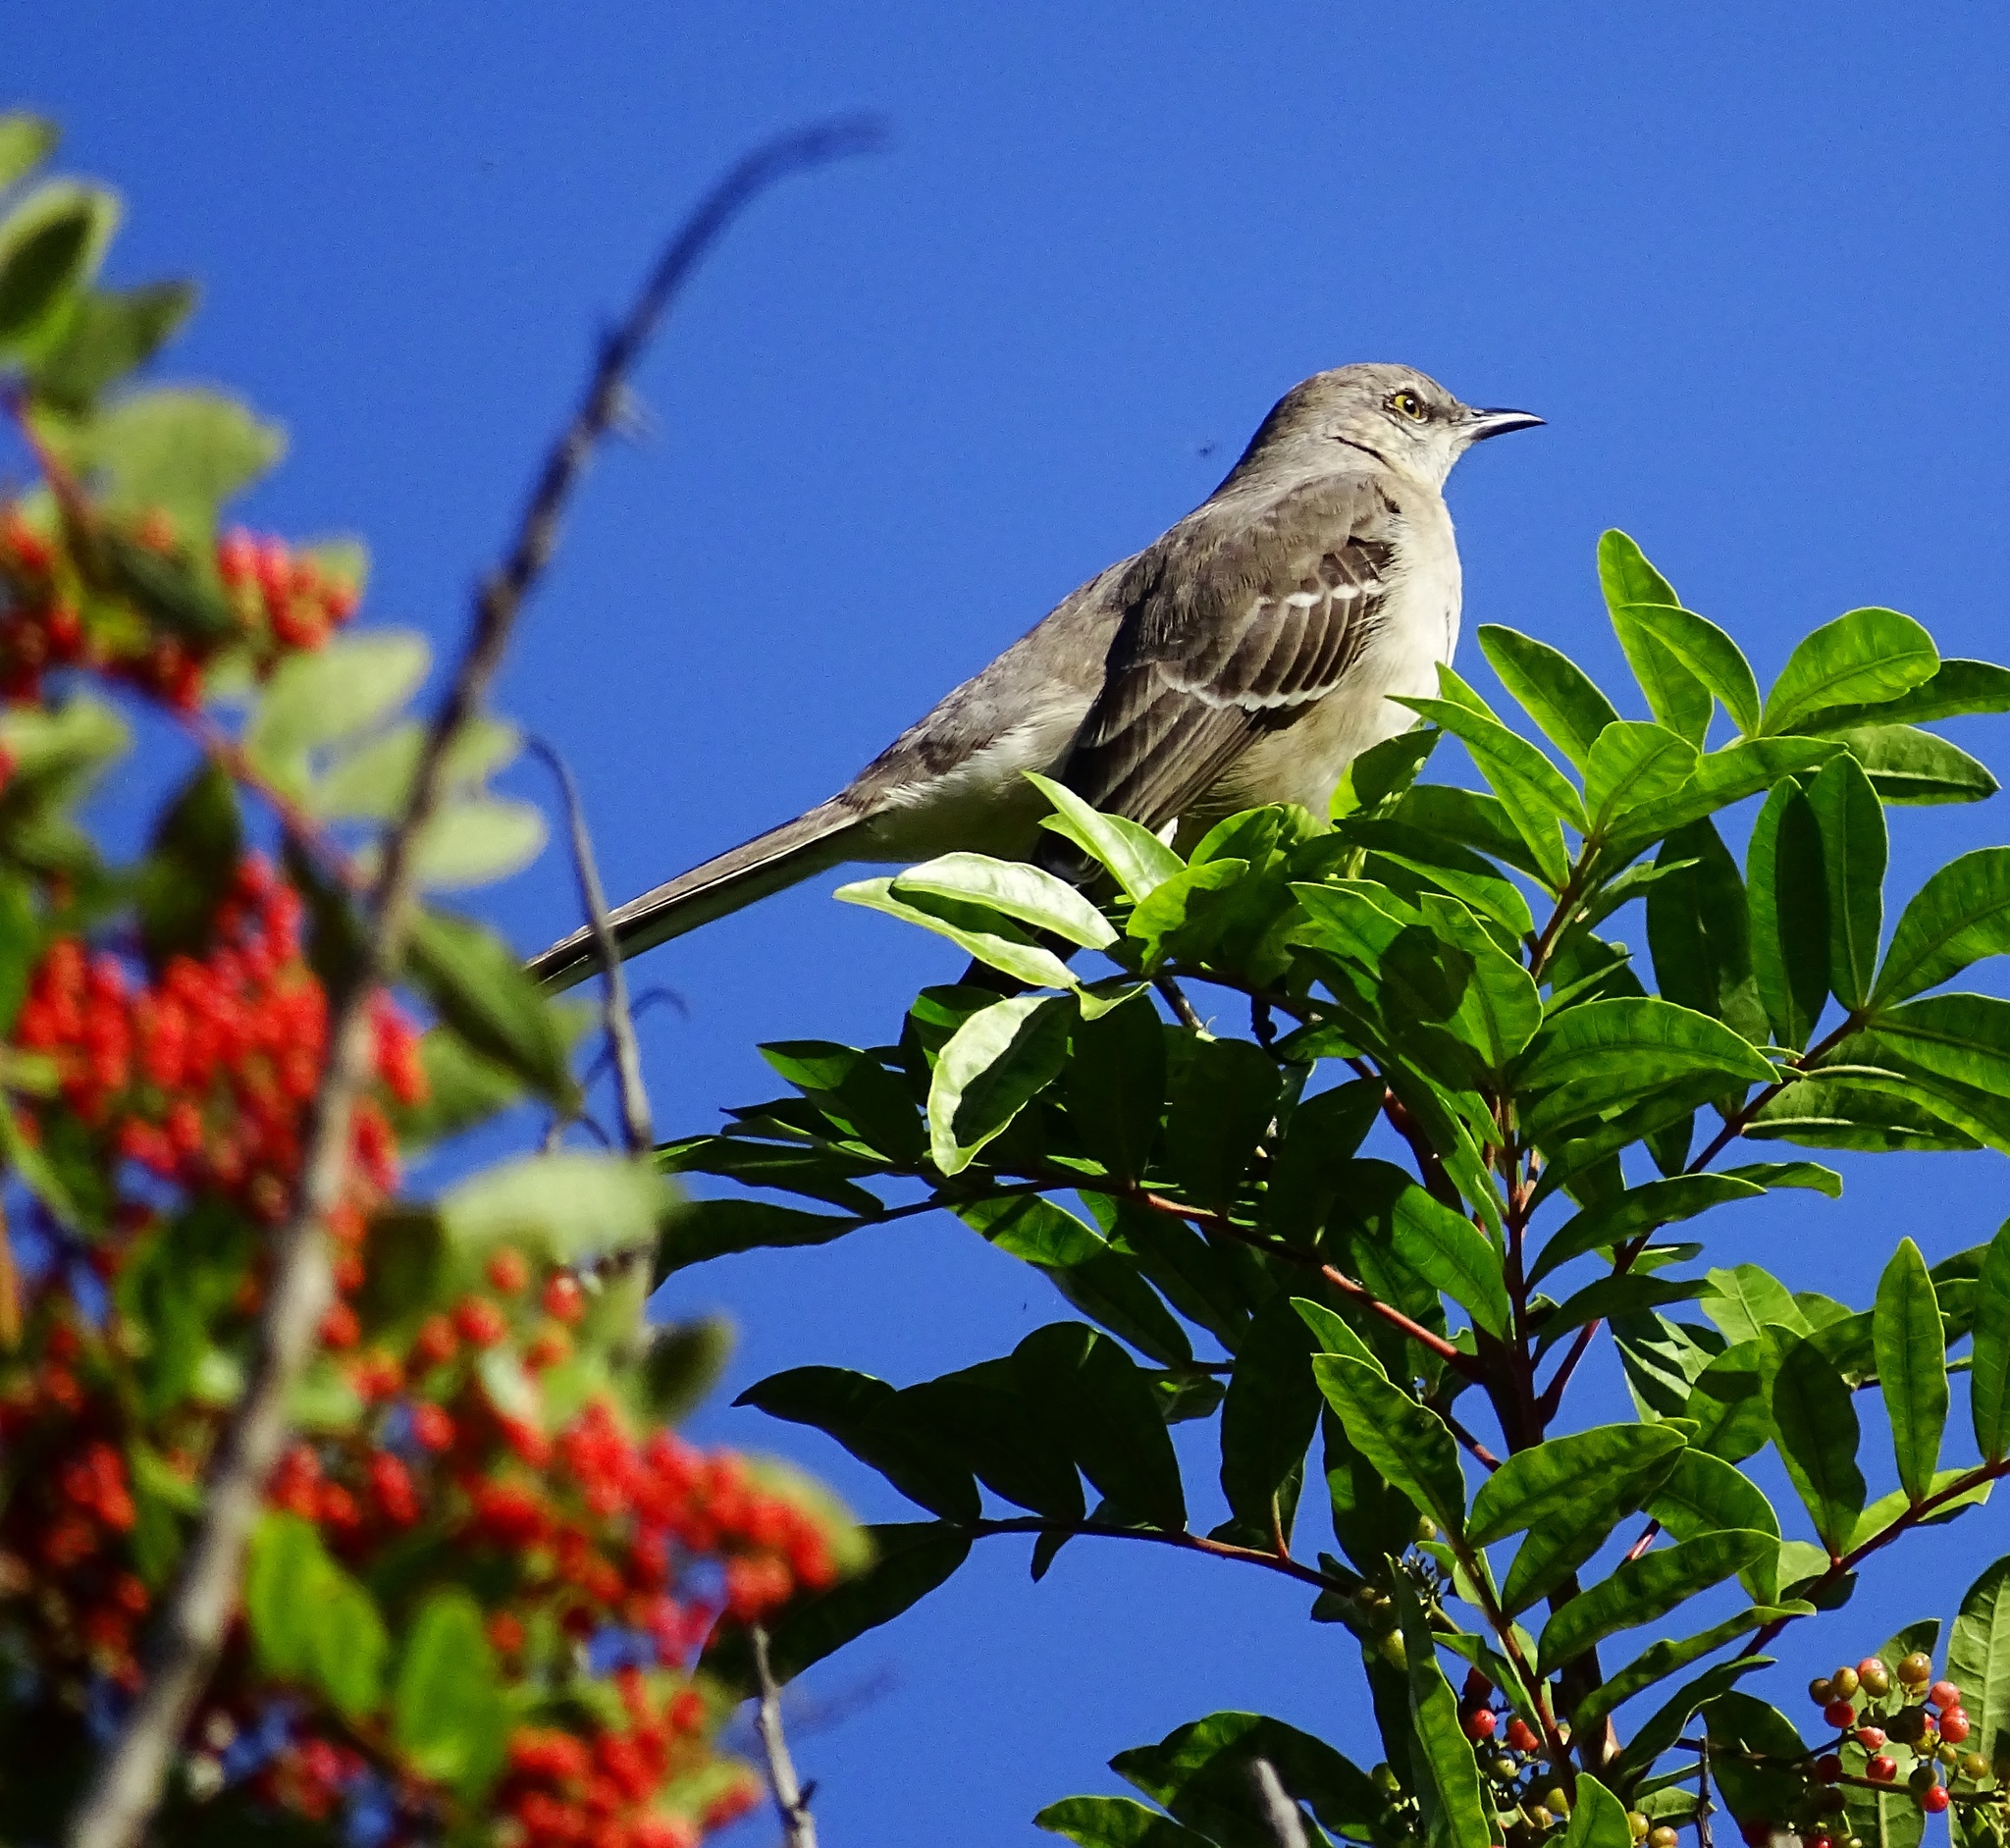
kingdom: Animalia
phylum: Chordata
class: Aves
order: Passeriformes
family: Mimidae
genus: Mimus
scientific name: Mimus polyglottos
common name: Northern mockingbird
